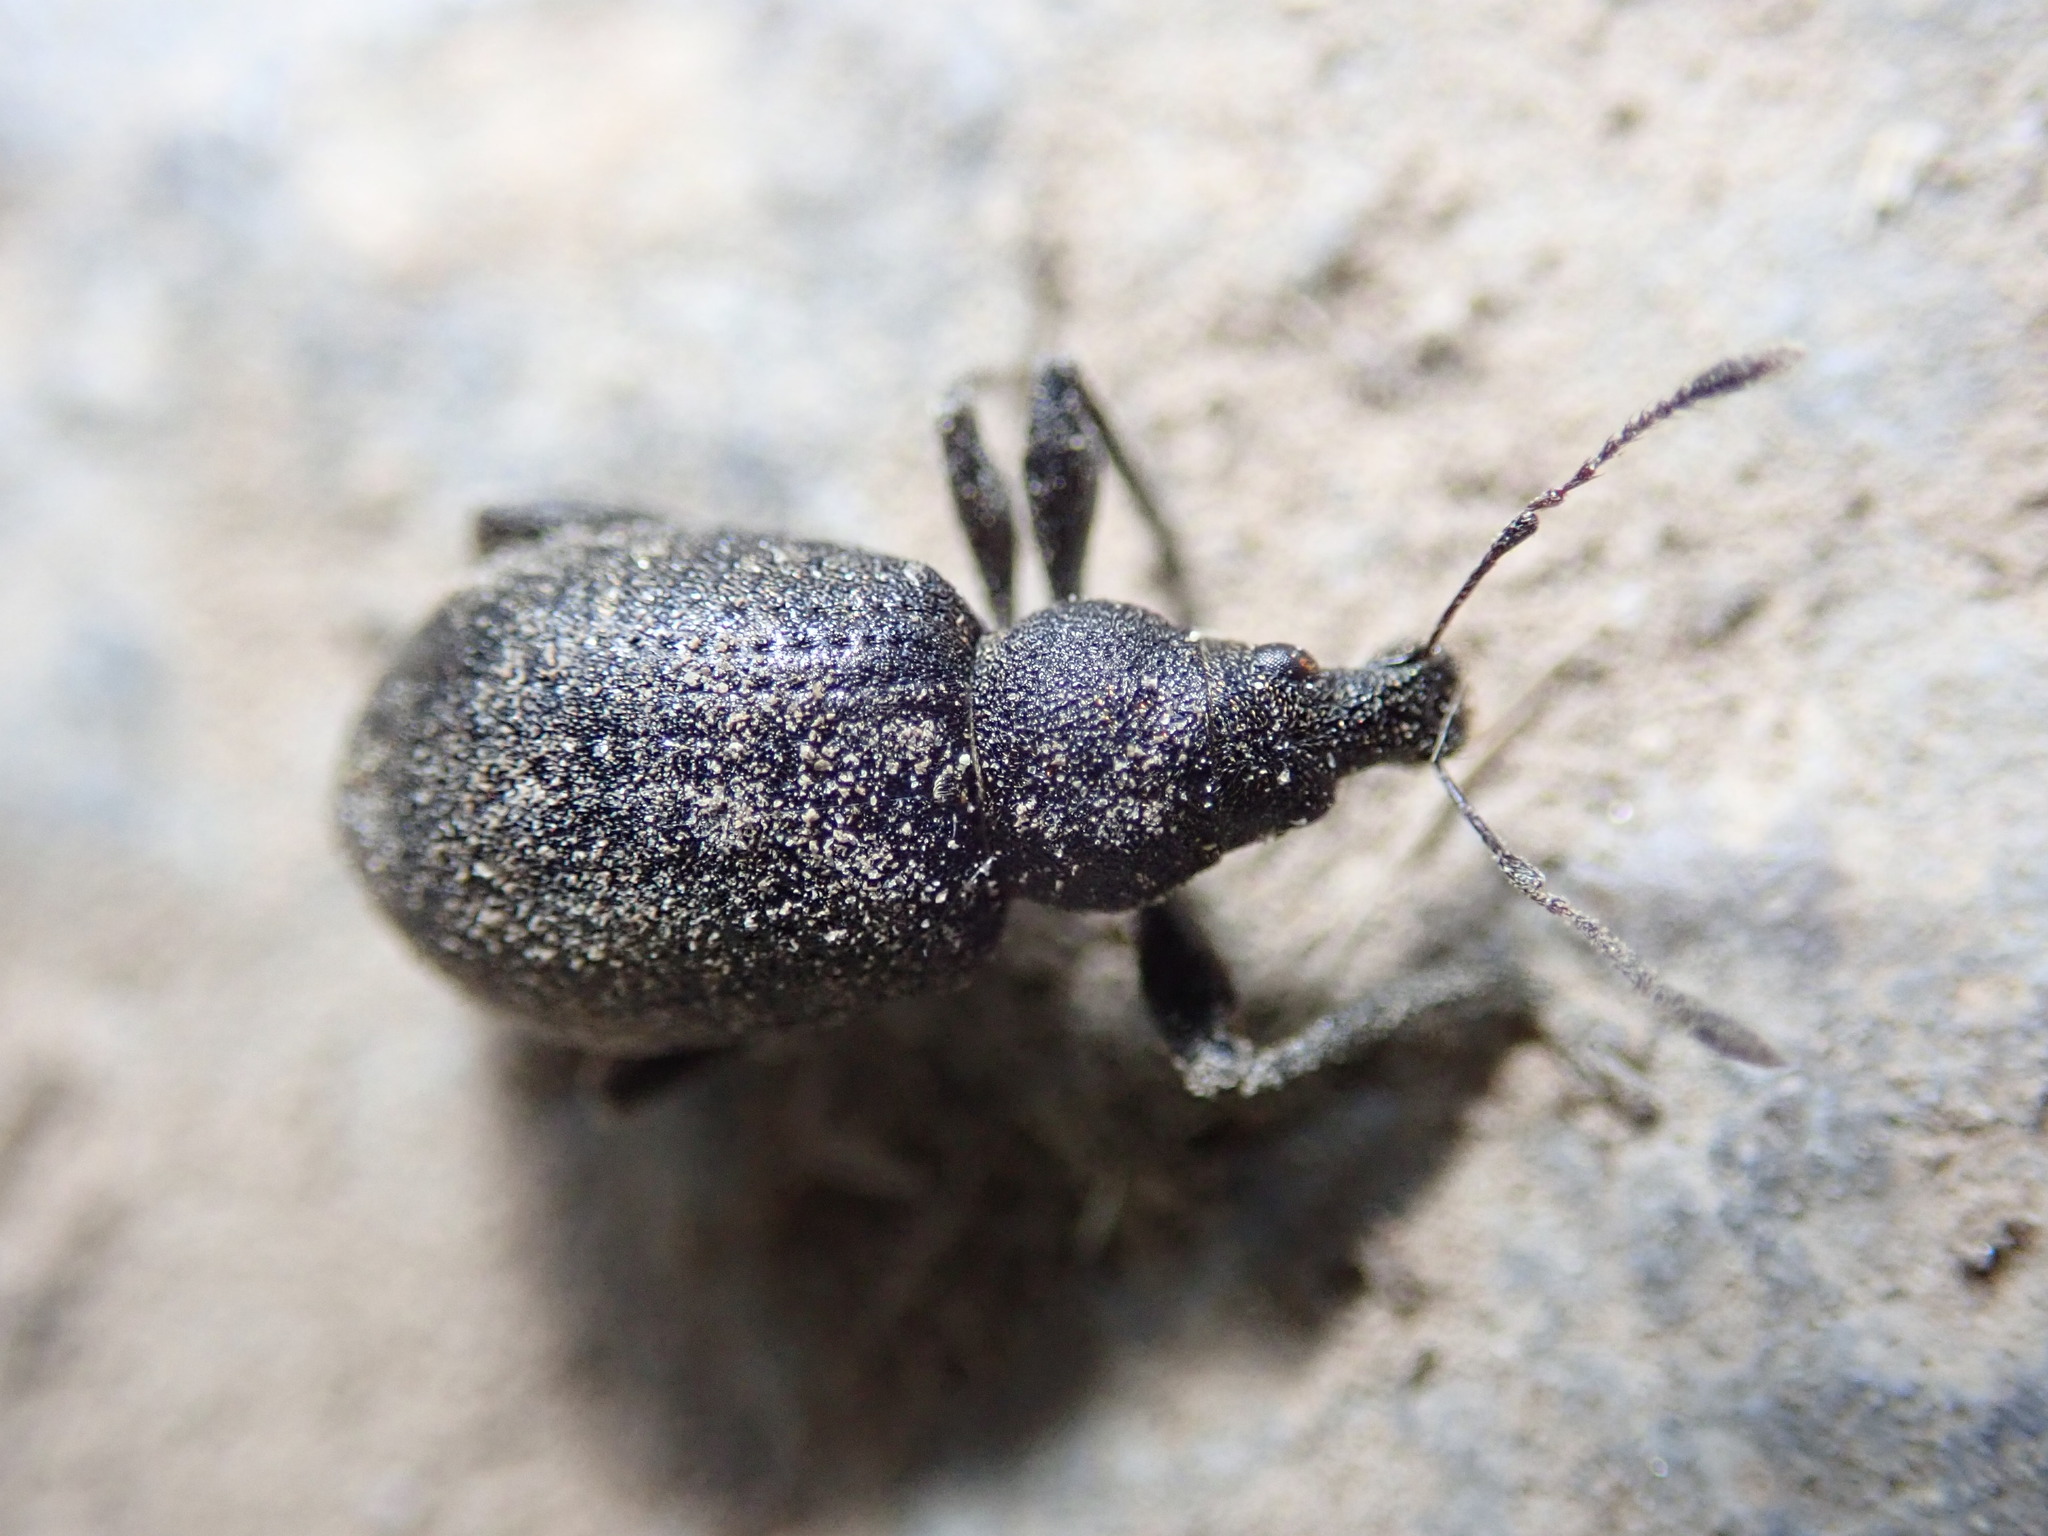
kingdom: Animalia
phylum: Arthropoda
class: Insecta
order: Coleoptera
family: Curculionidae
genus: Liophloeus
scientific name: Liophloeus tessulatus
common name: Weevil
